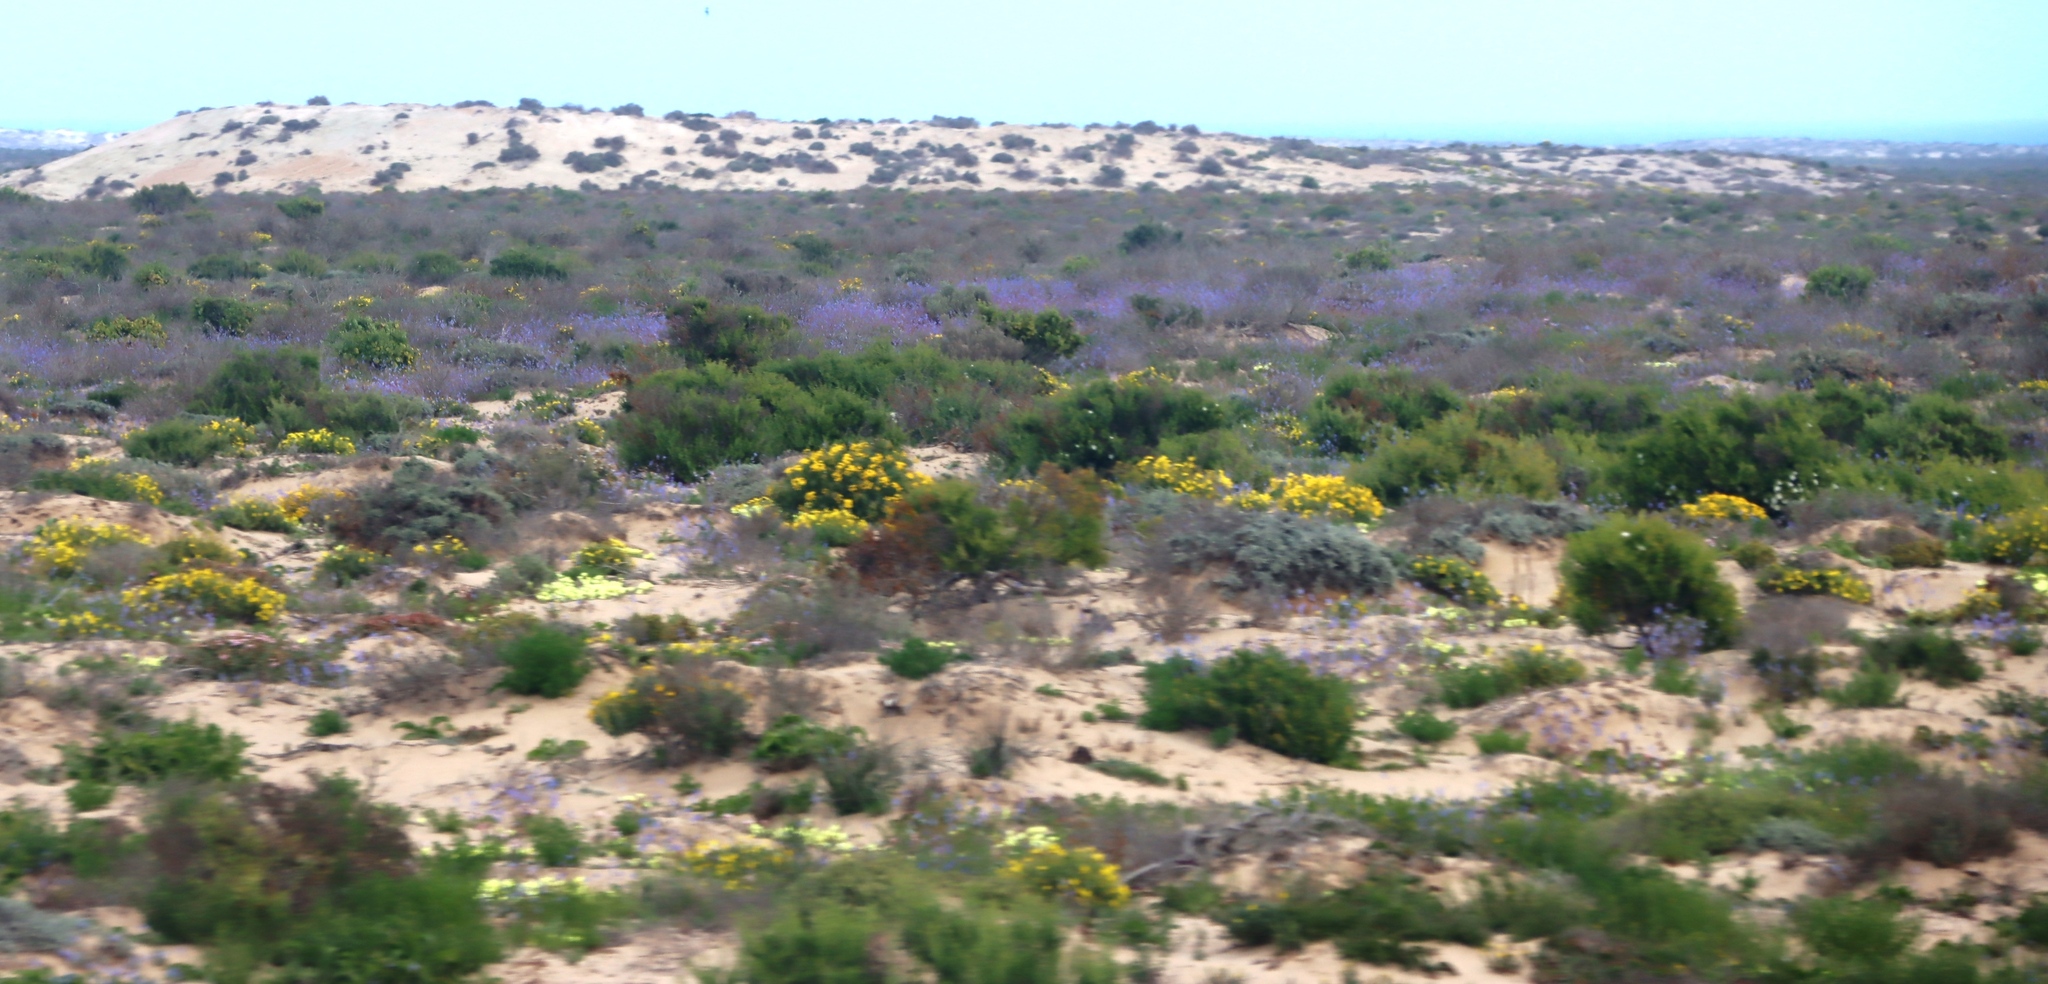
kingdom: Plantae
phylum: Tracheophyta
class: Magnoliopsida
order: Brassicales
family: Brassicaceae
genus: Heliophila
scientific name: Heliophila lactea
